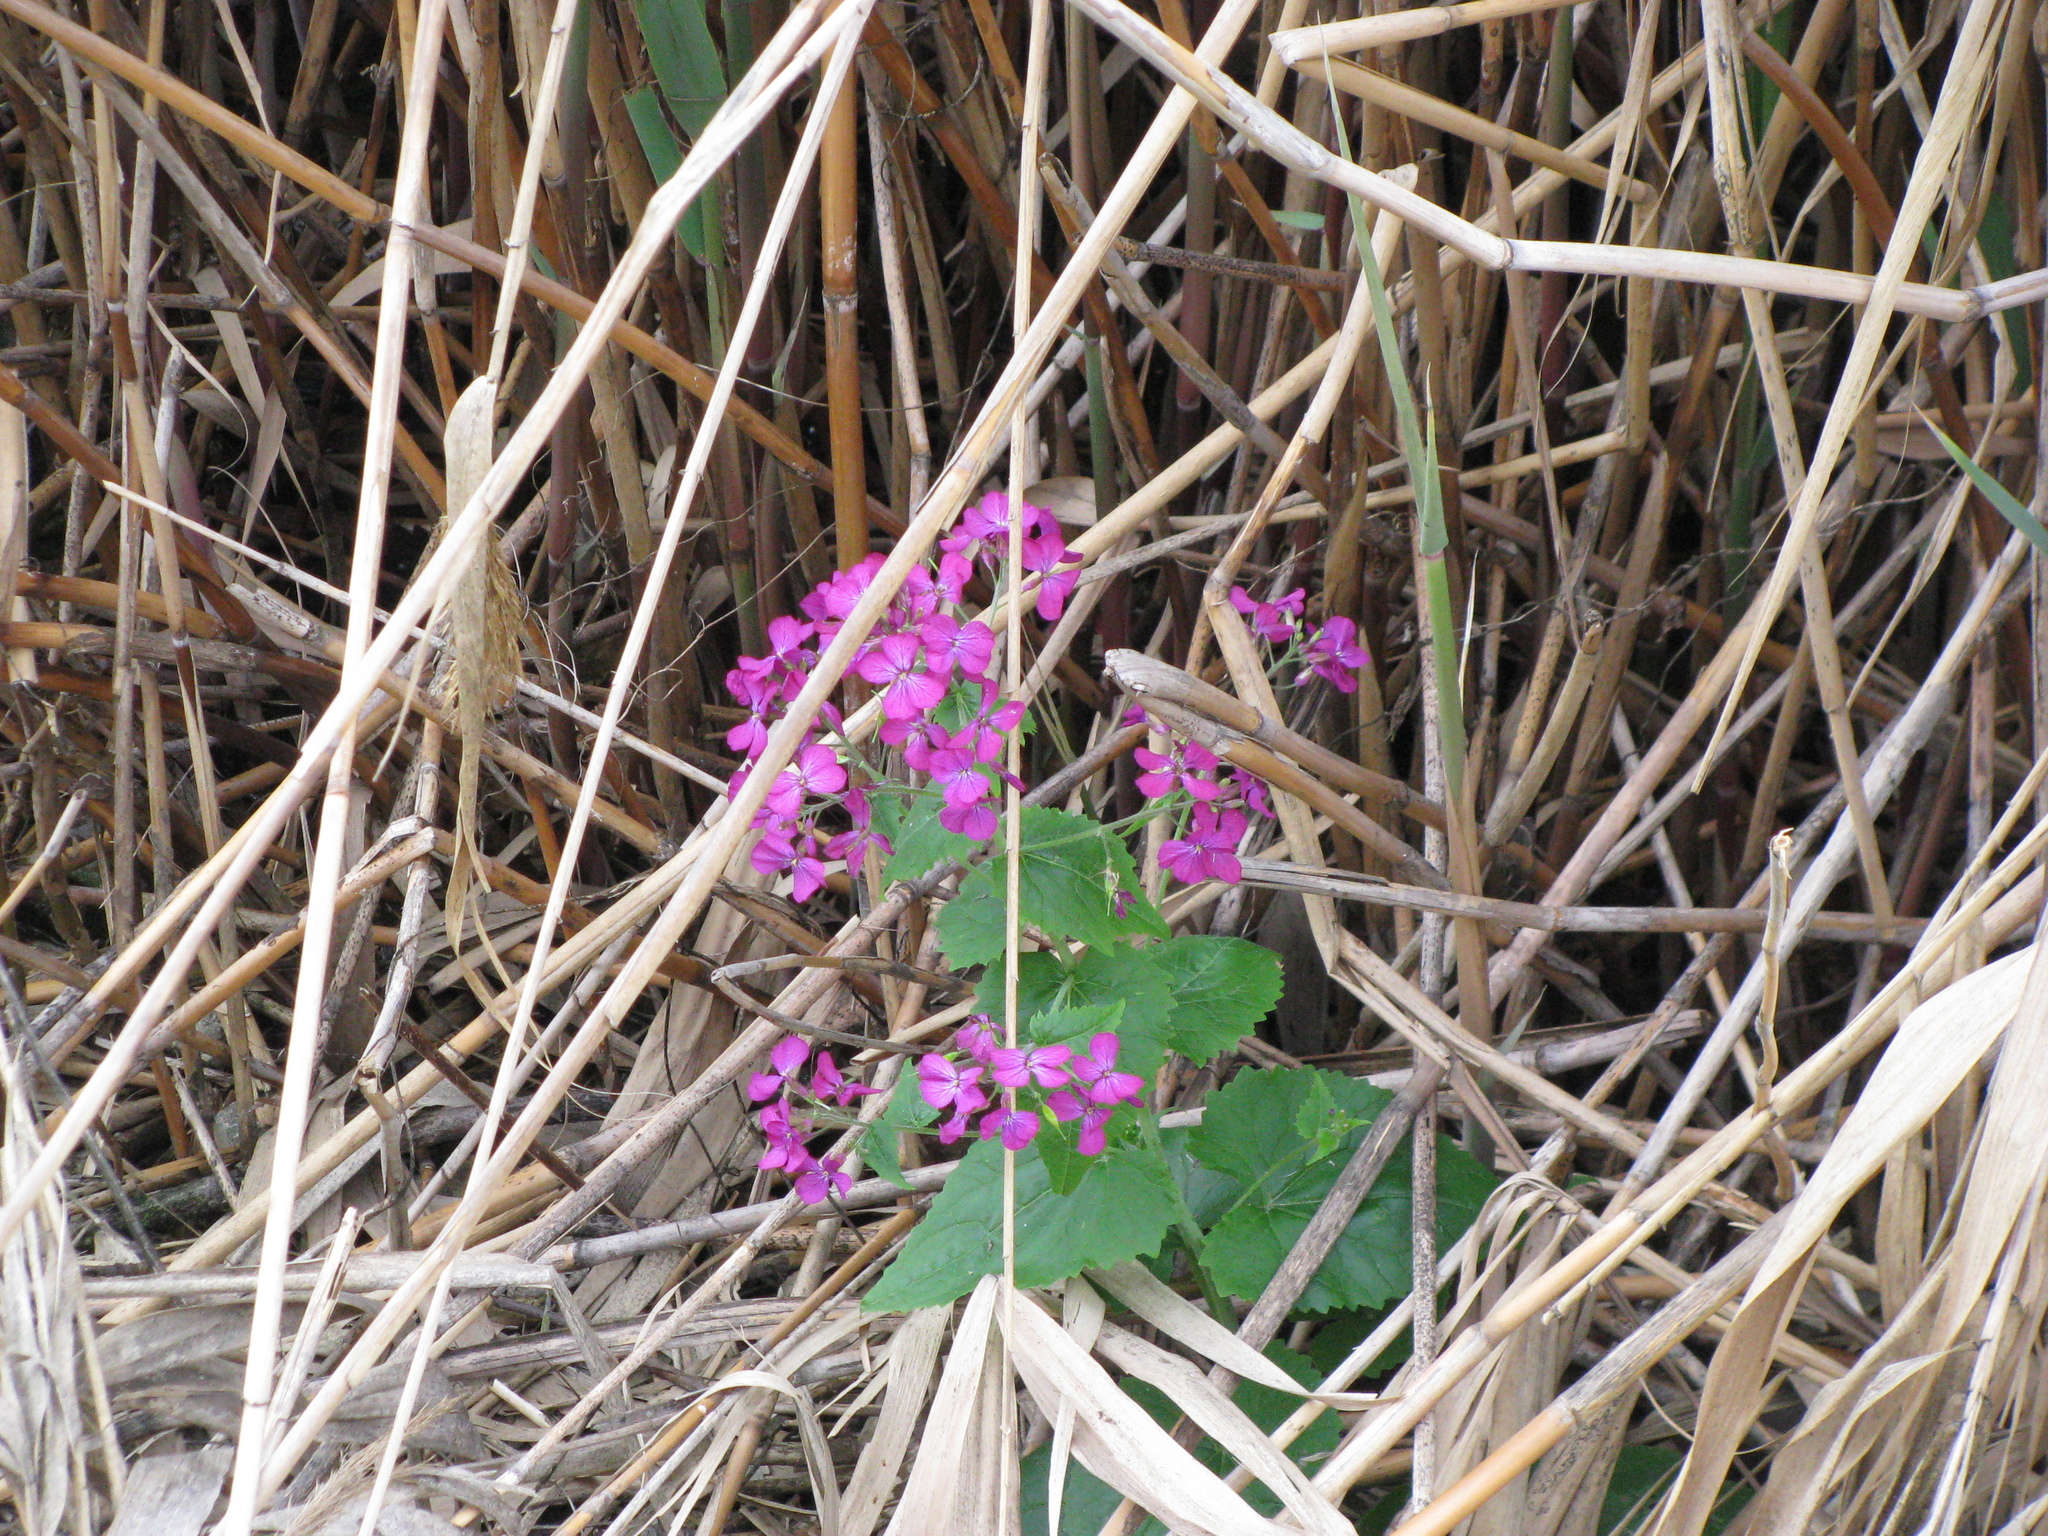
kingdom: Plantae
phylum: Tracheophyta
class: Magnoliopsida
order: Brassicales
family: Brassicaceae
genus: Lunaria
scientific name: Lunaria annua
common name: Honesty
